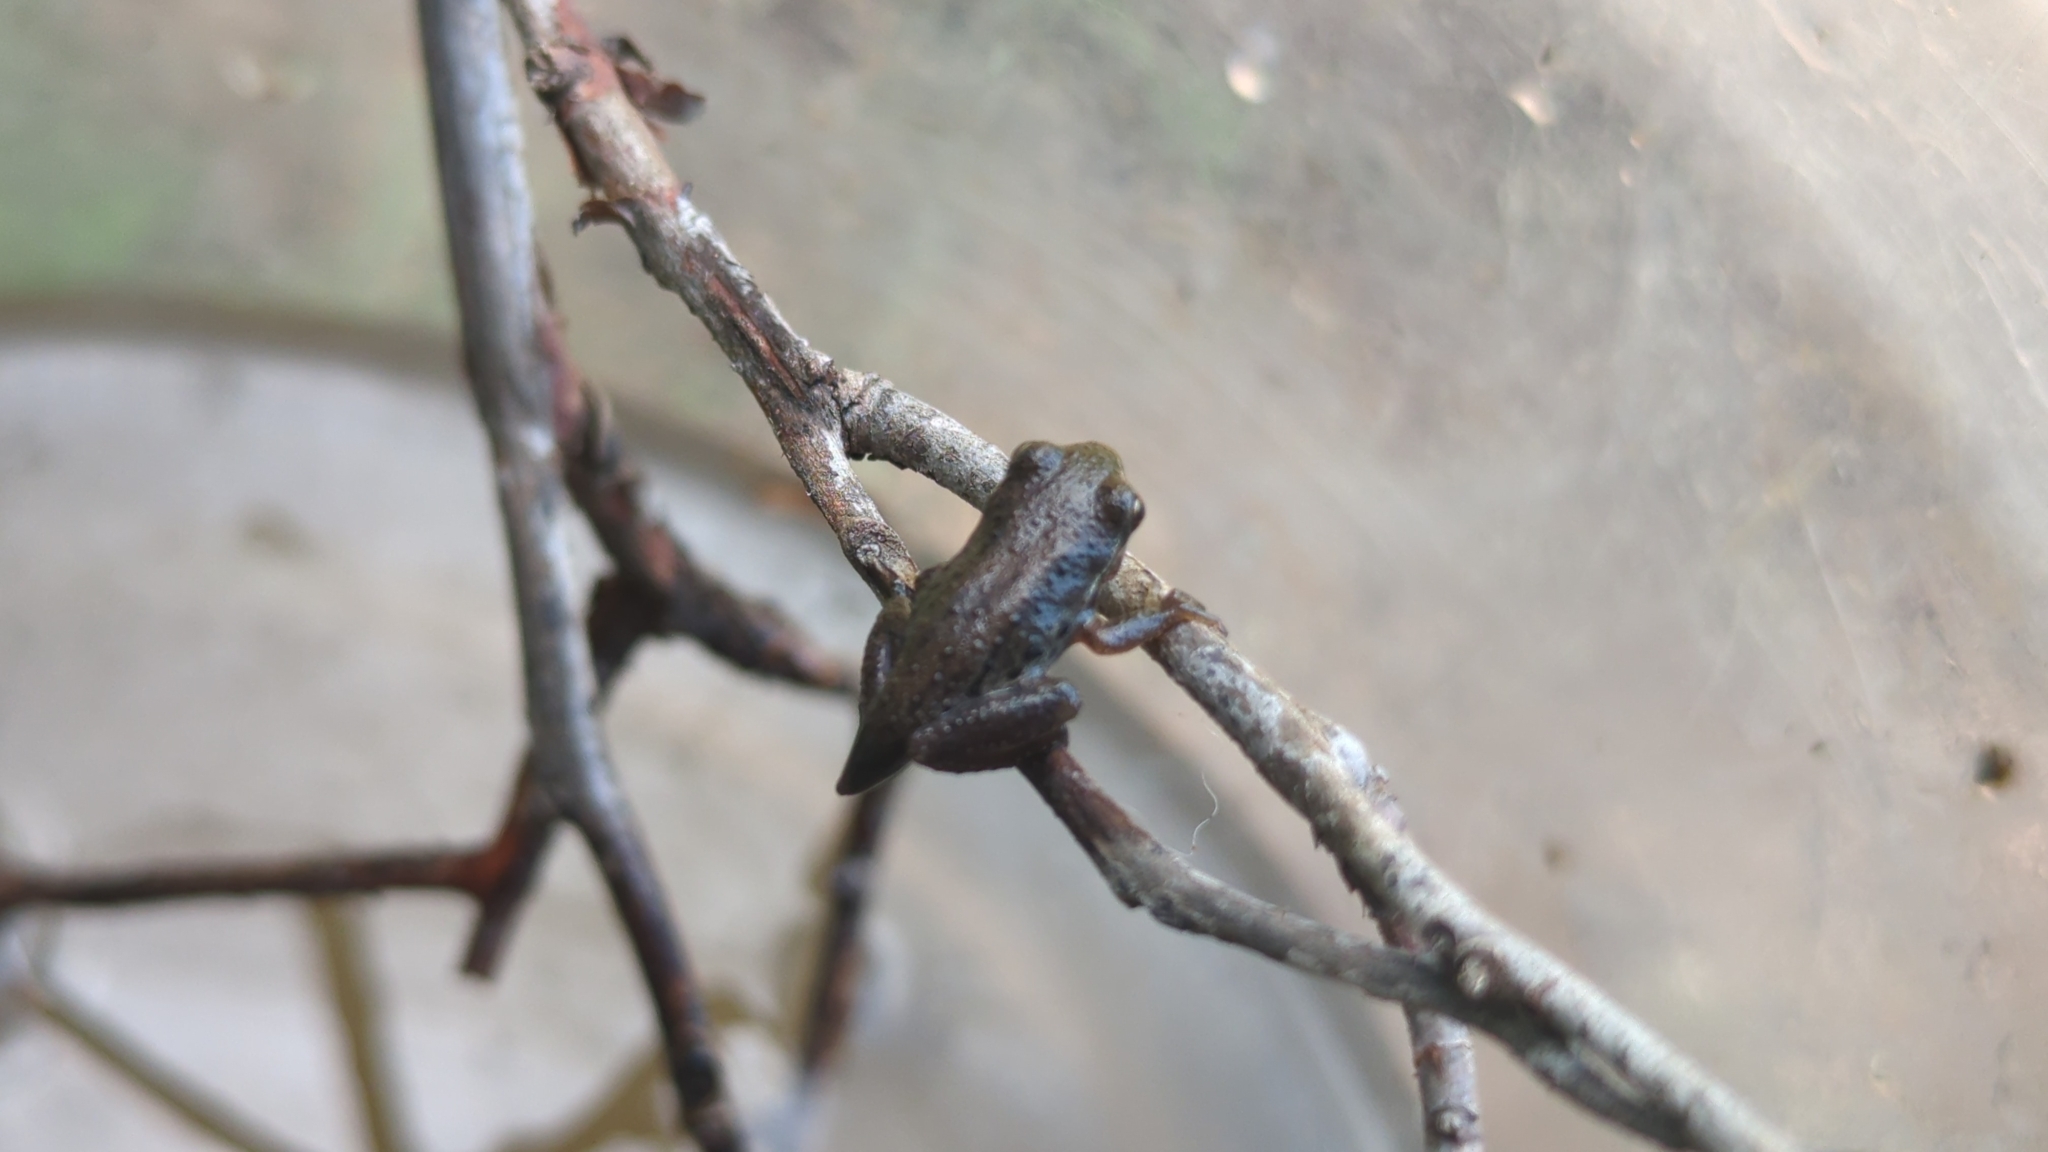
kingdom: Animalia
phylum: Chordata
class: Amphibia
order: Anura
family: Hylidae
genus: Pseudacris
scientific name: Pseudacris regilla
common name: Pacific chorus frog
